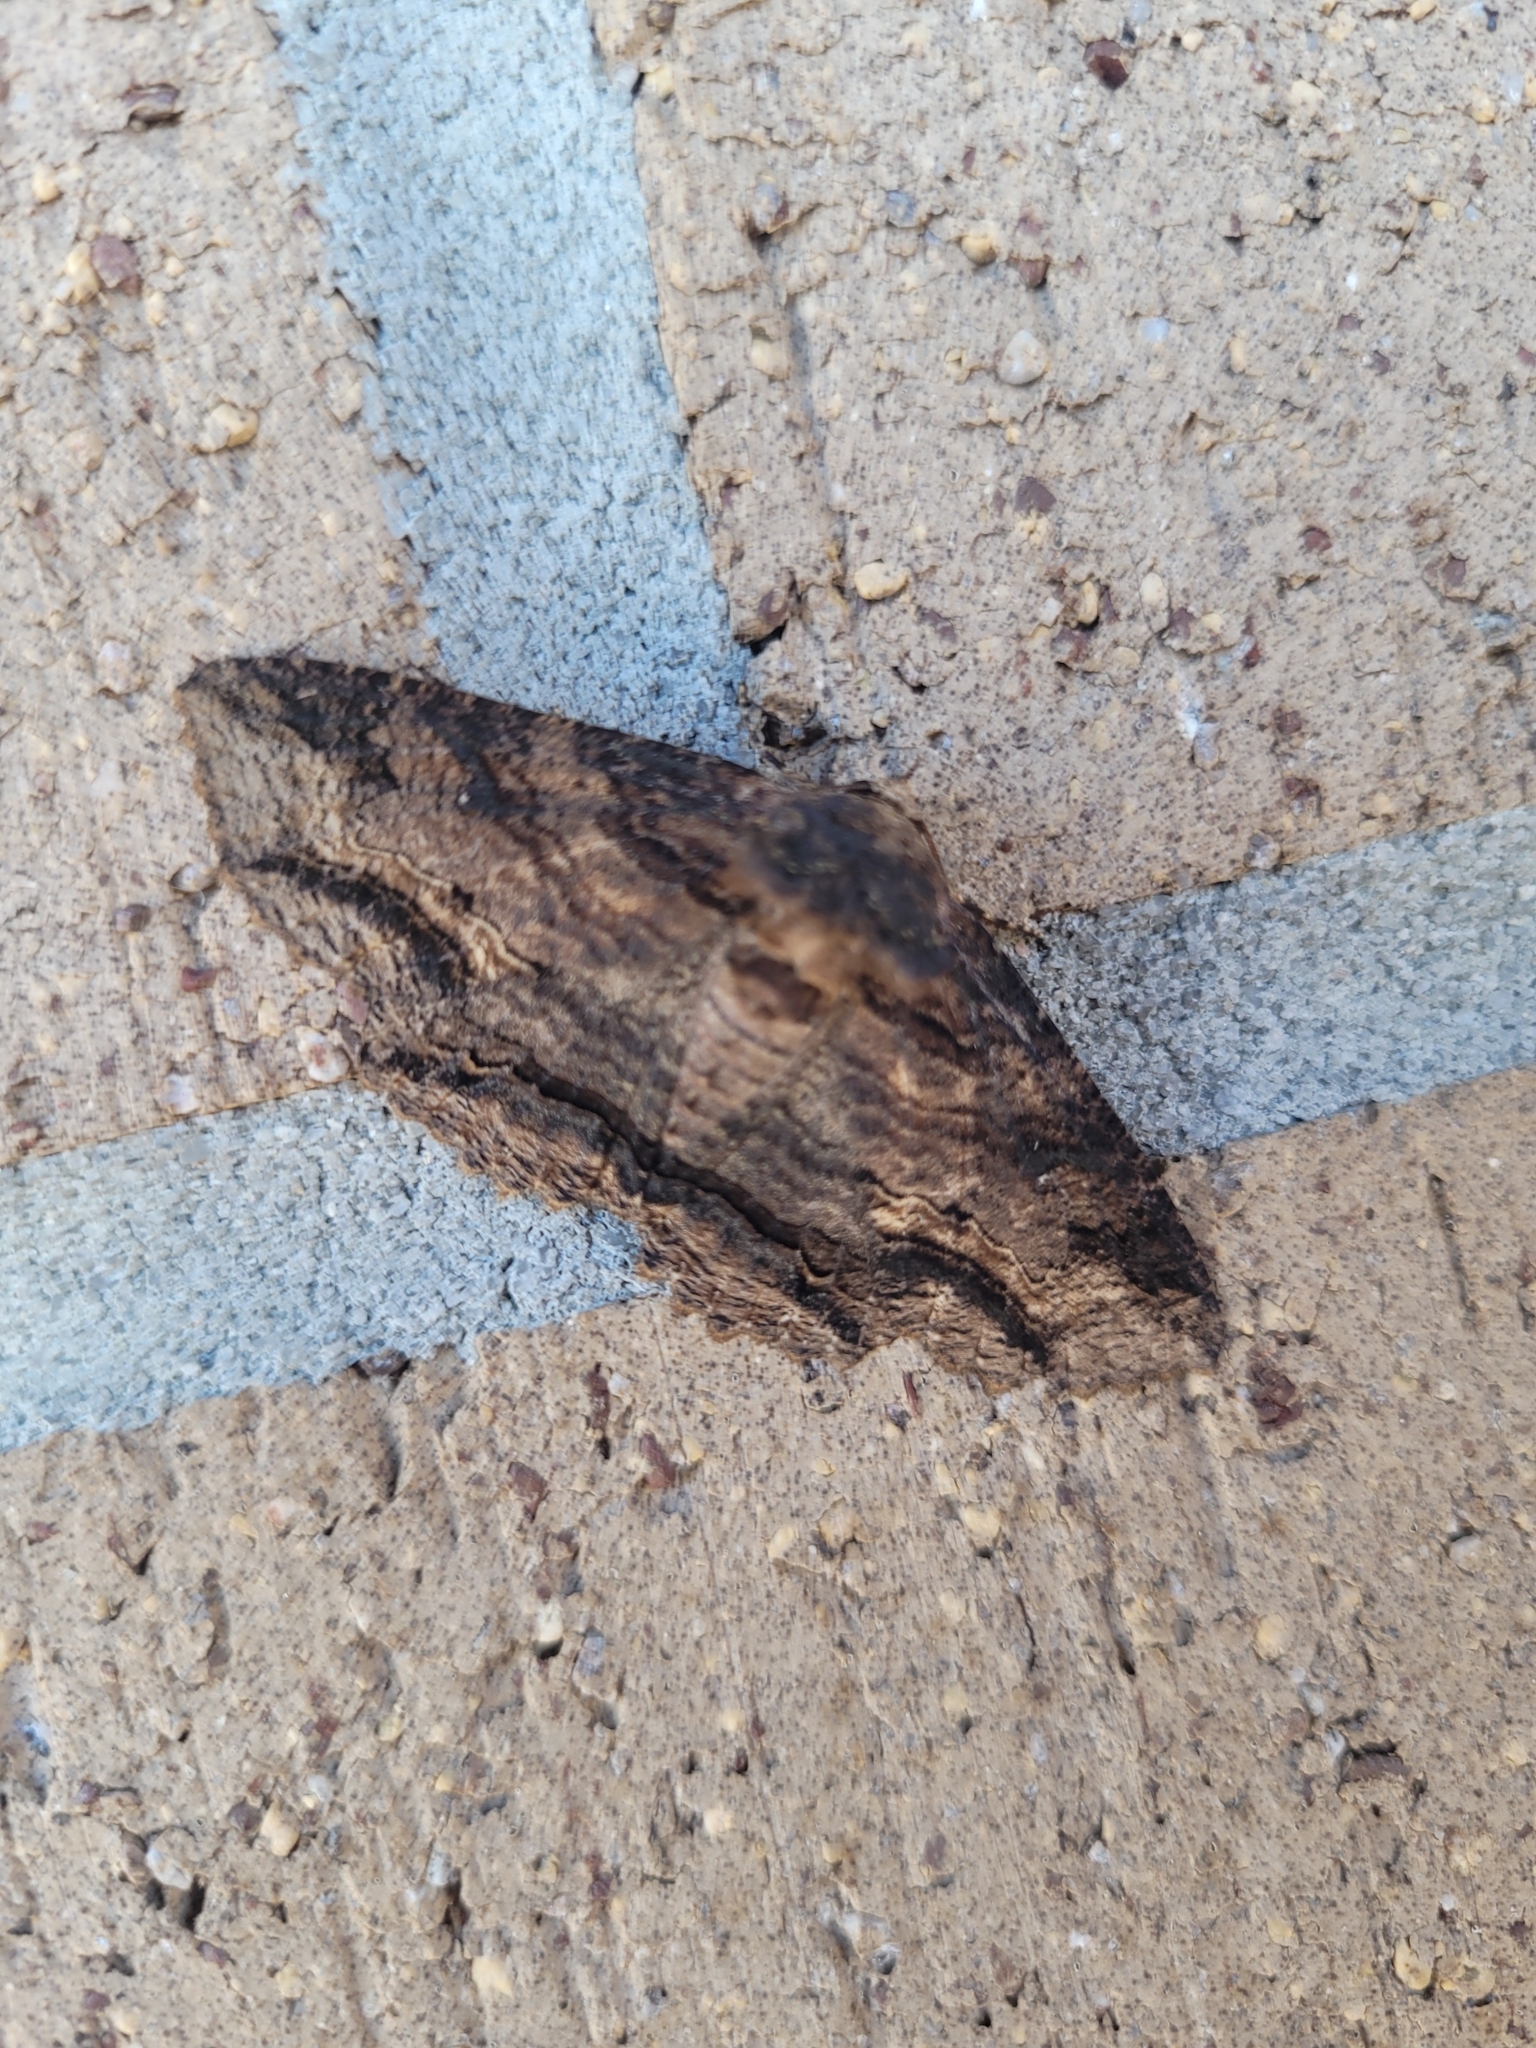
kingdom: Animalia
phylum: Arthropoda
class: Insecta
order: Lepidoptera
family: Erebidae
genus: Zale
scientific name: Zale lunata
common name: Lunate zale moth
